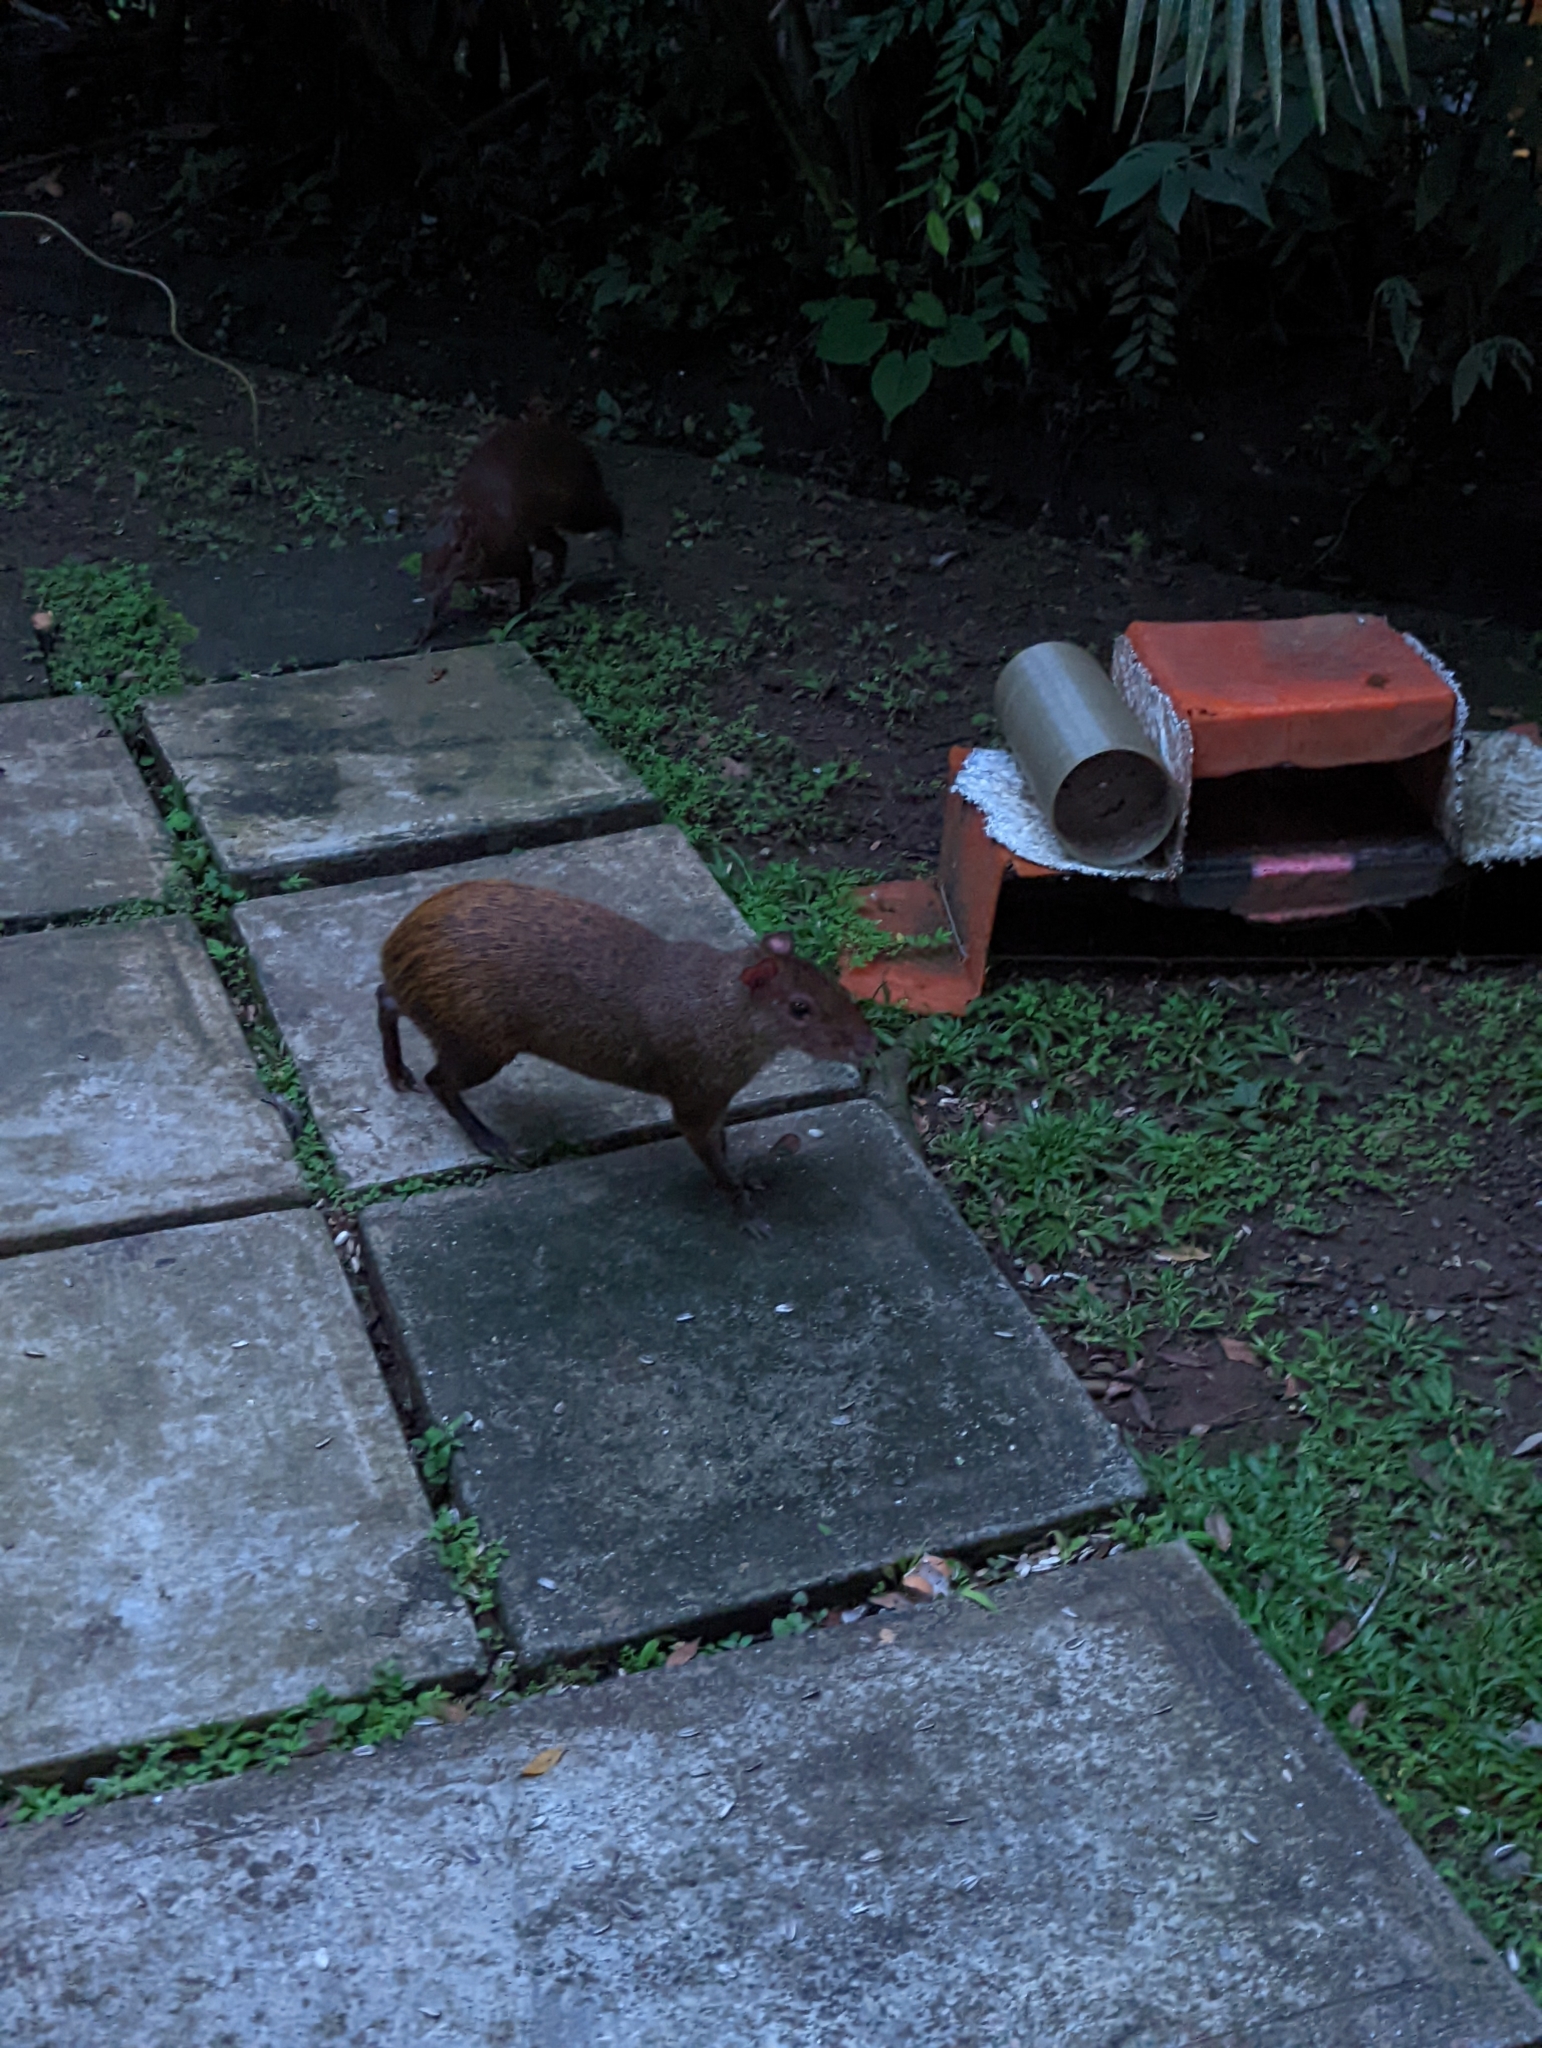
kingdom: Animalia
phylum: Chordata
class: Mammalia
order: Rodentia
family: Dasyproctidae
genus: Dasyprocta
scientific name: Dasyprocta punctata
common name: Central american agouti
